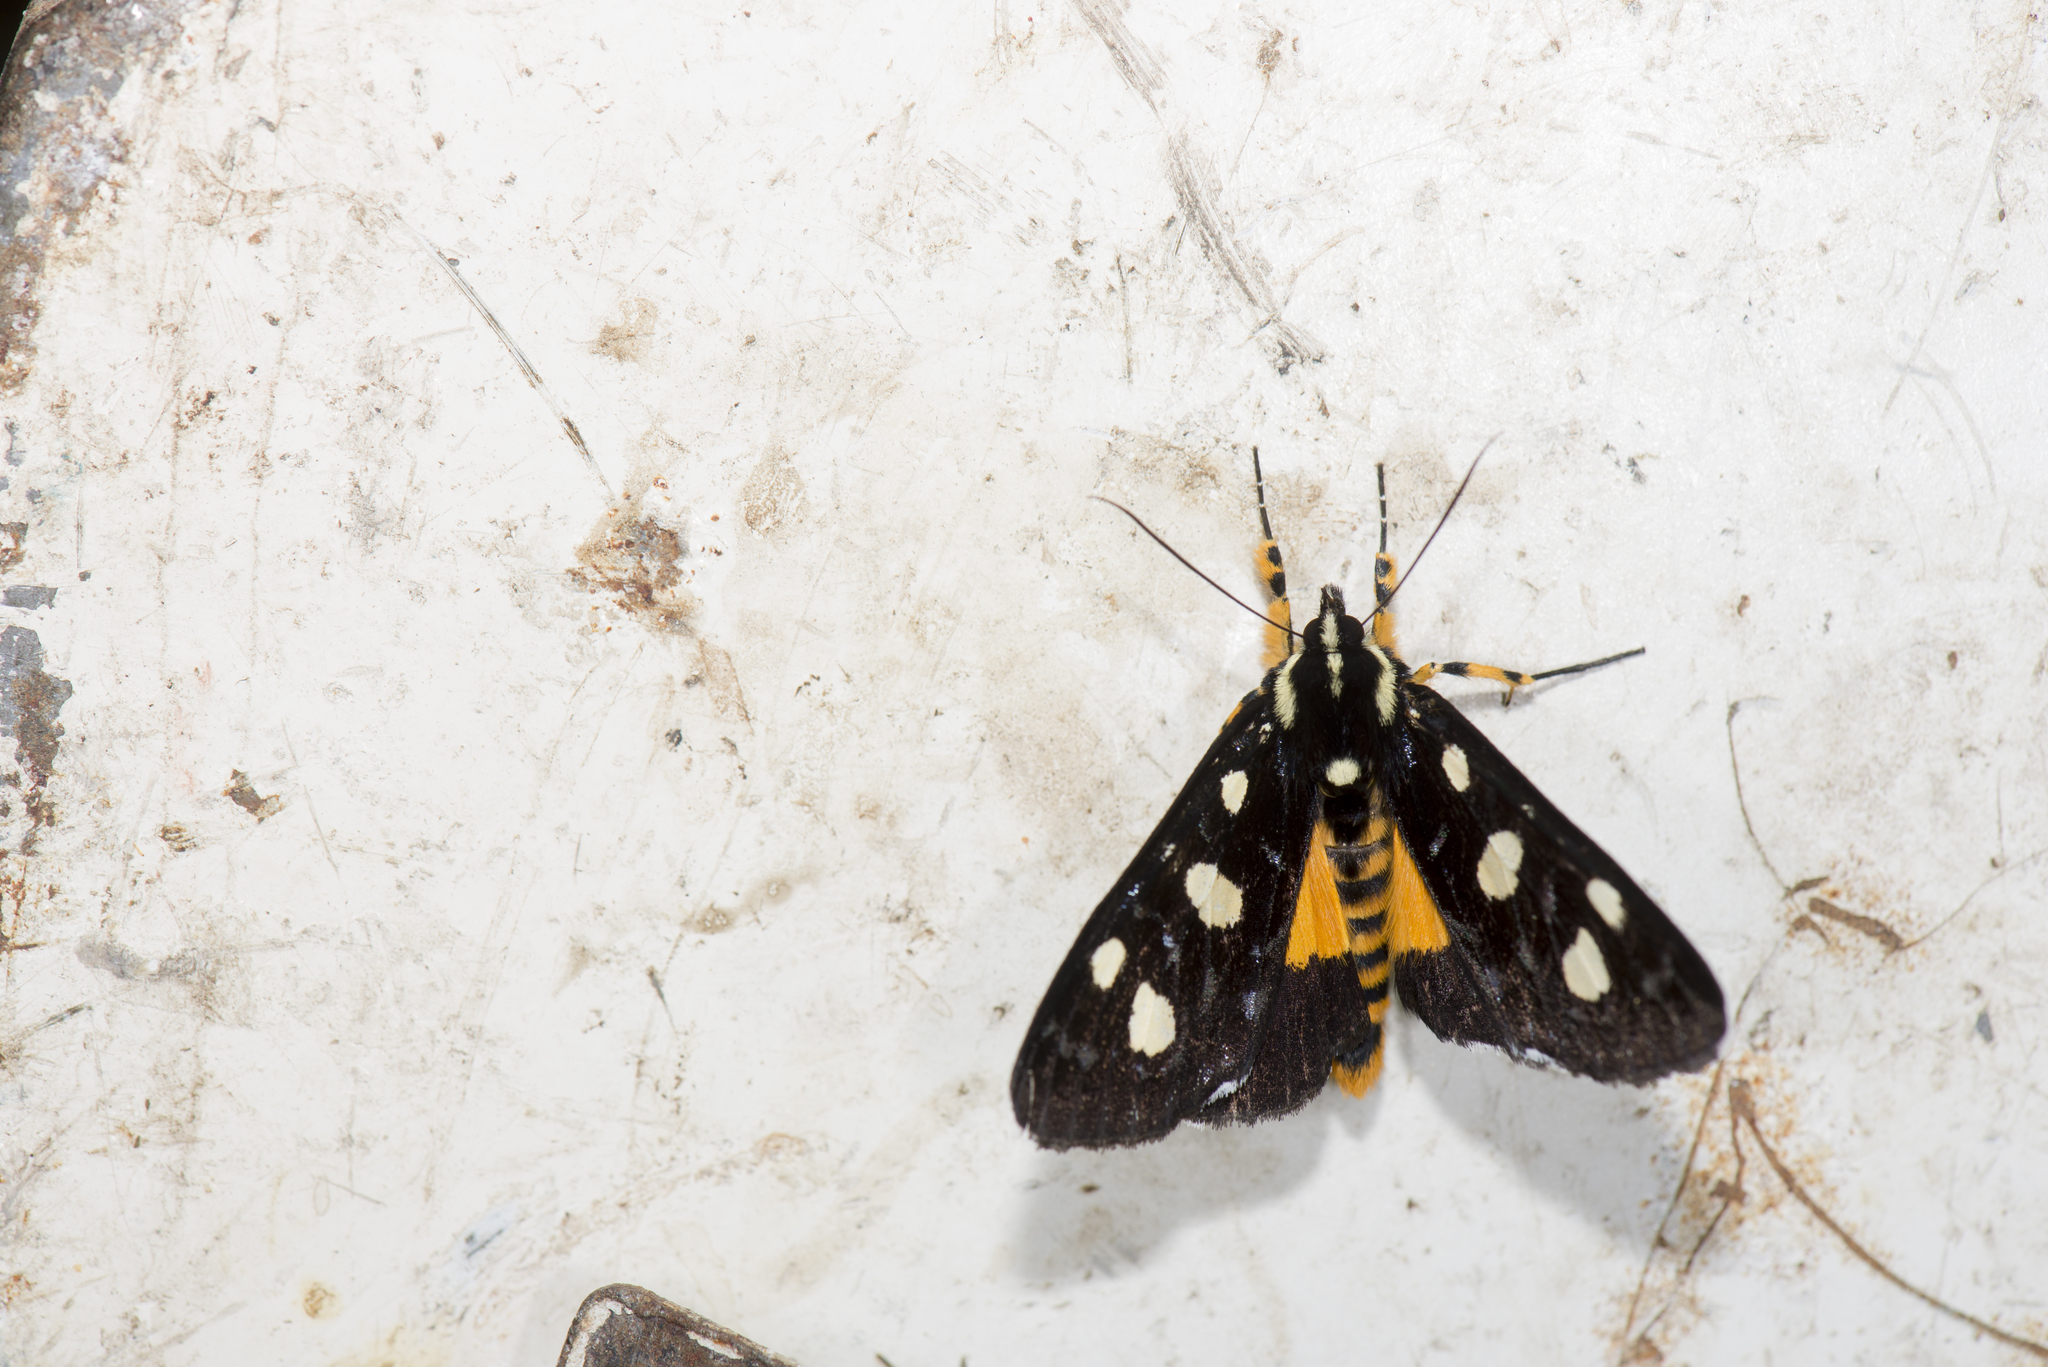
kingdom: Animalia
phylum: Arthropoda
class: Insecta
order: Lepidoptera
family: Noctuidae
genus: Mimeusemia
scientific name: Mimeusemia vilemani
